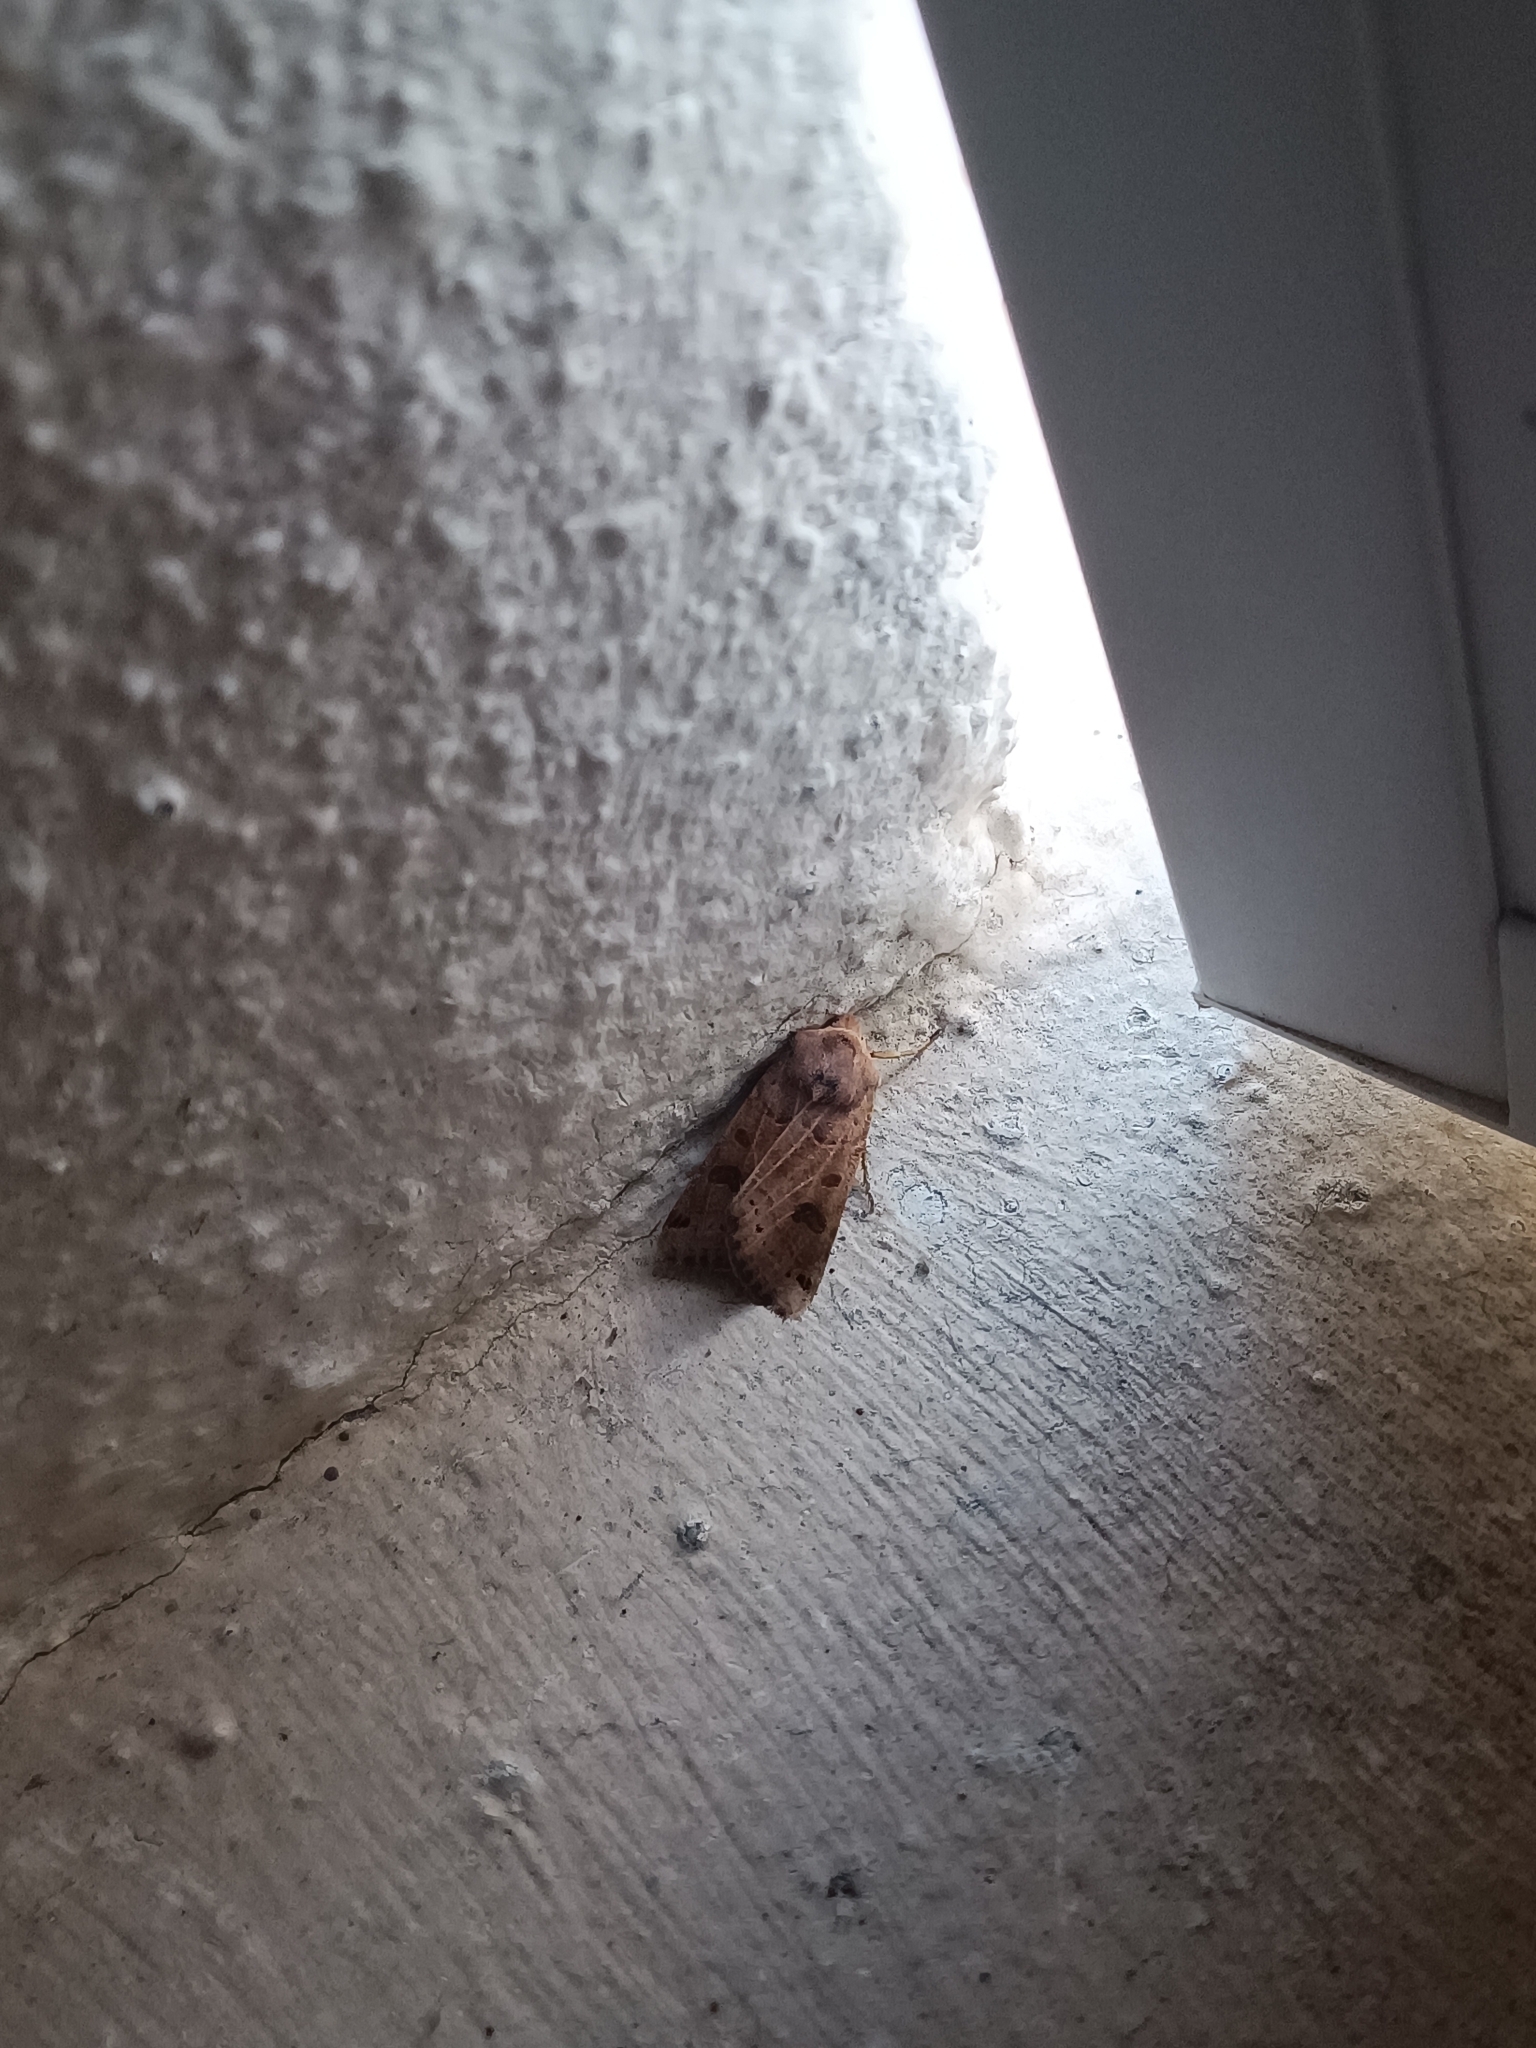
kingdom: Animalia
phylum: Arthropoda
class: Insecta
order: Lepidoptera
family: Noctuidae
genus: Agrochola
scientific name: Agrochola lunosa
